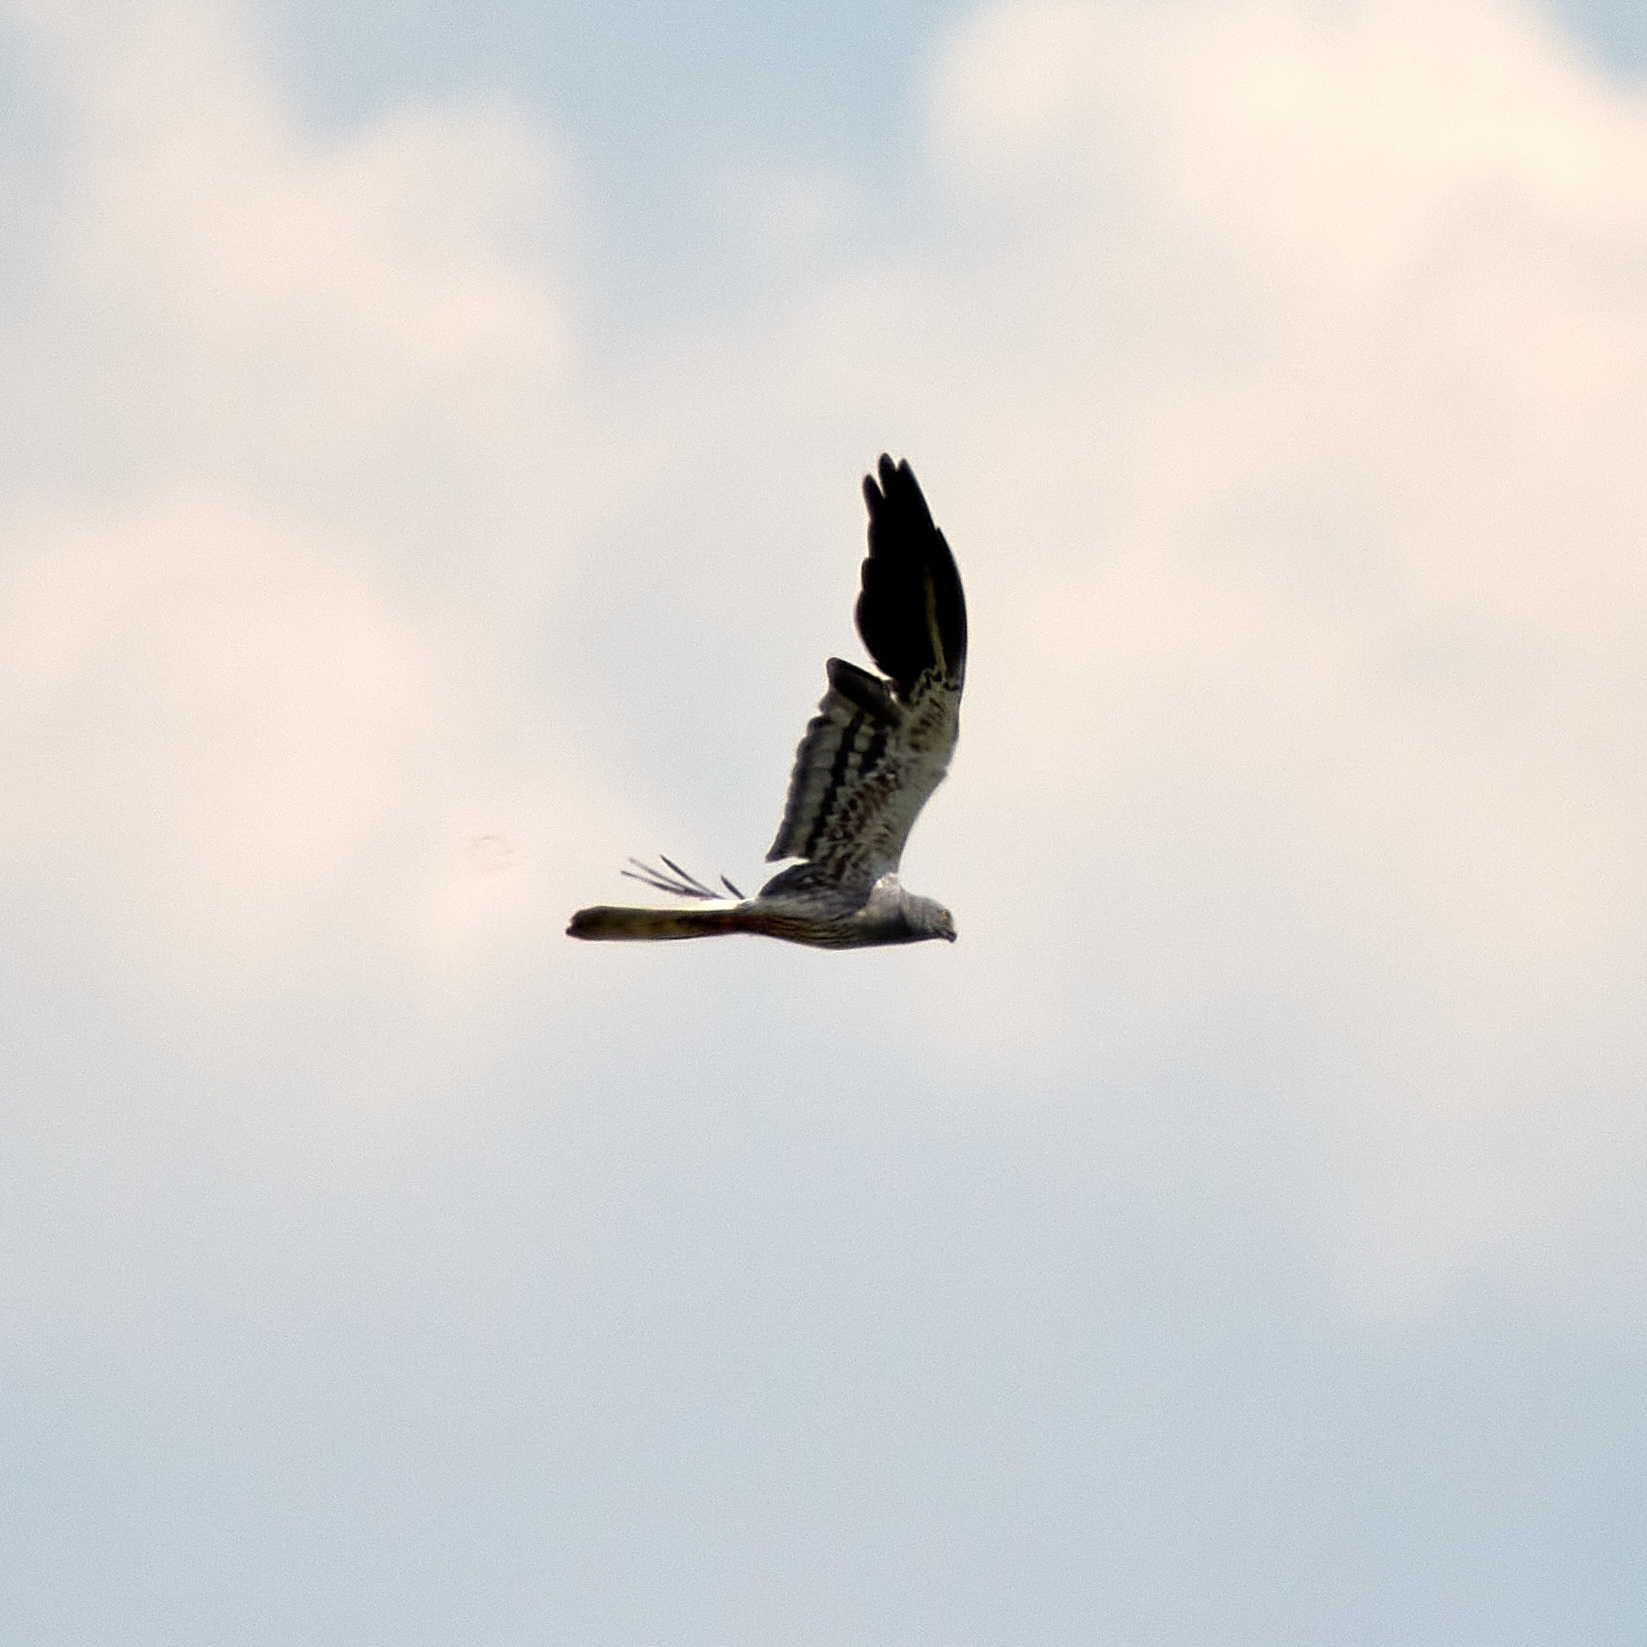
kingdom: Animalia
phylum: Chordata
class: Aves
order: Accipitriformes
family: Accipitridae
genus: Circus
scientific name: Circus pygargus
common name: Montagu's harrier
